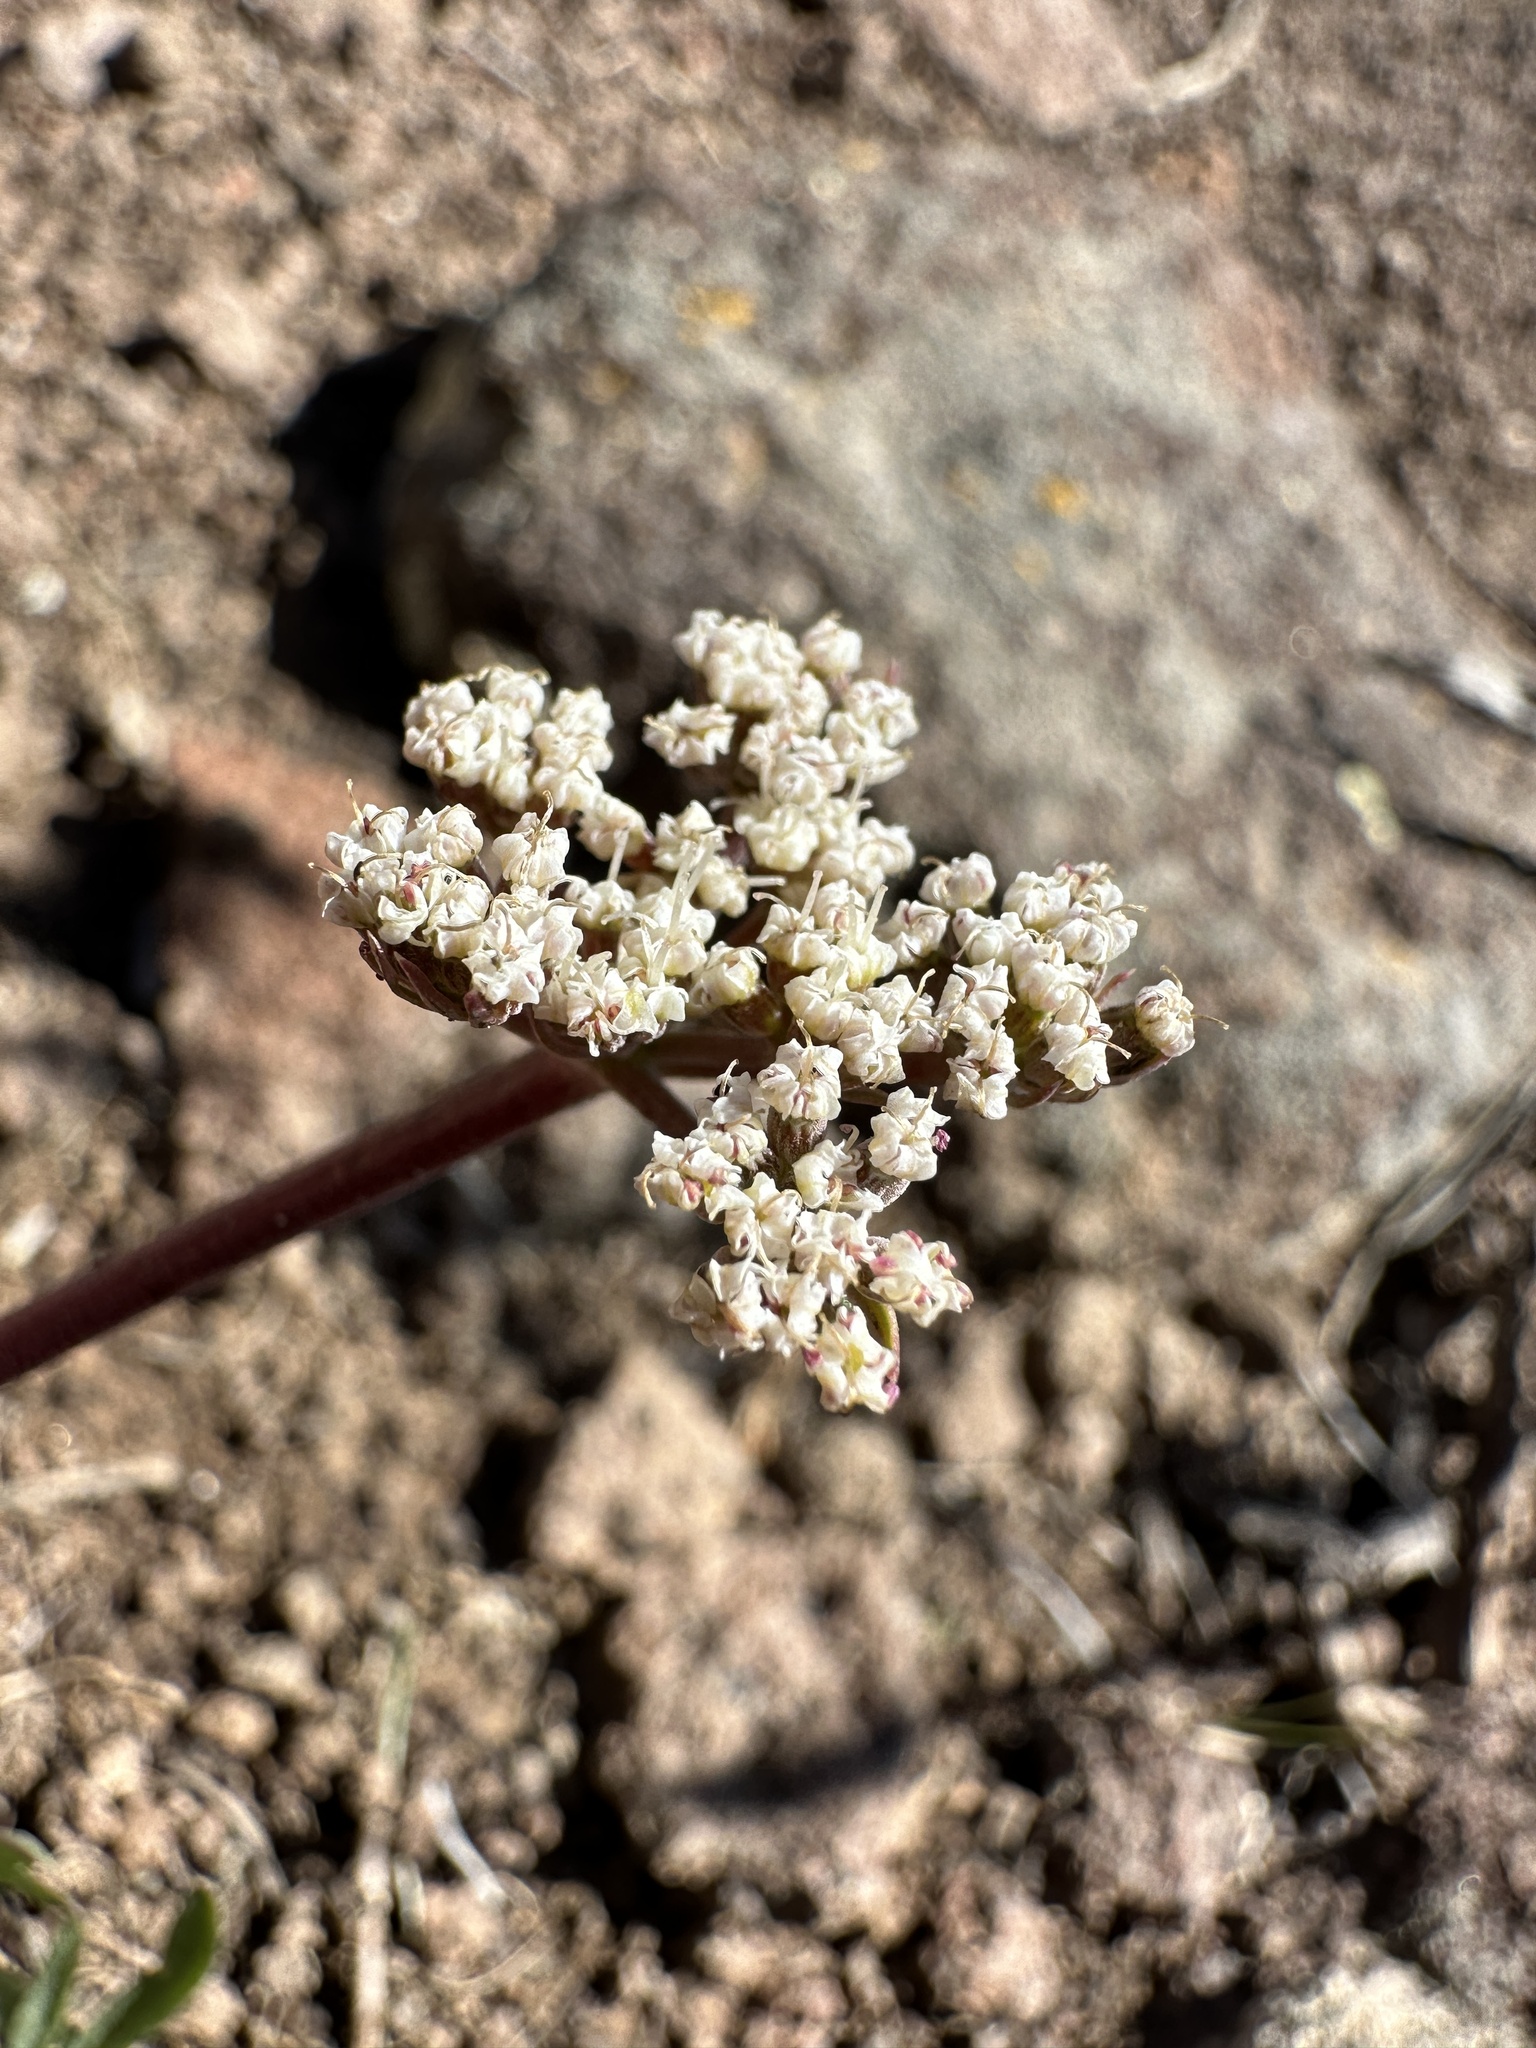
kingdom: Plantae
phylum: Tracheophyta
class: Magnoliopsida
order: Apiales
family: Apiaceae
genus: Lomatium
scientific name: Lomatium nevadense
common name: Nevada lomatium
